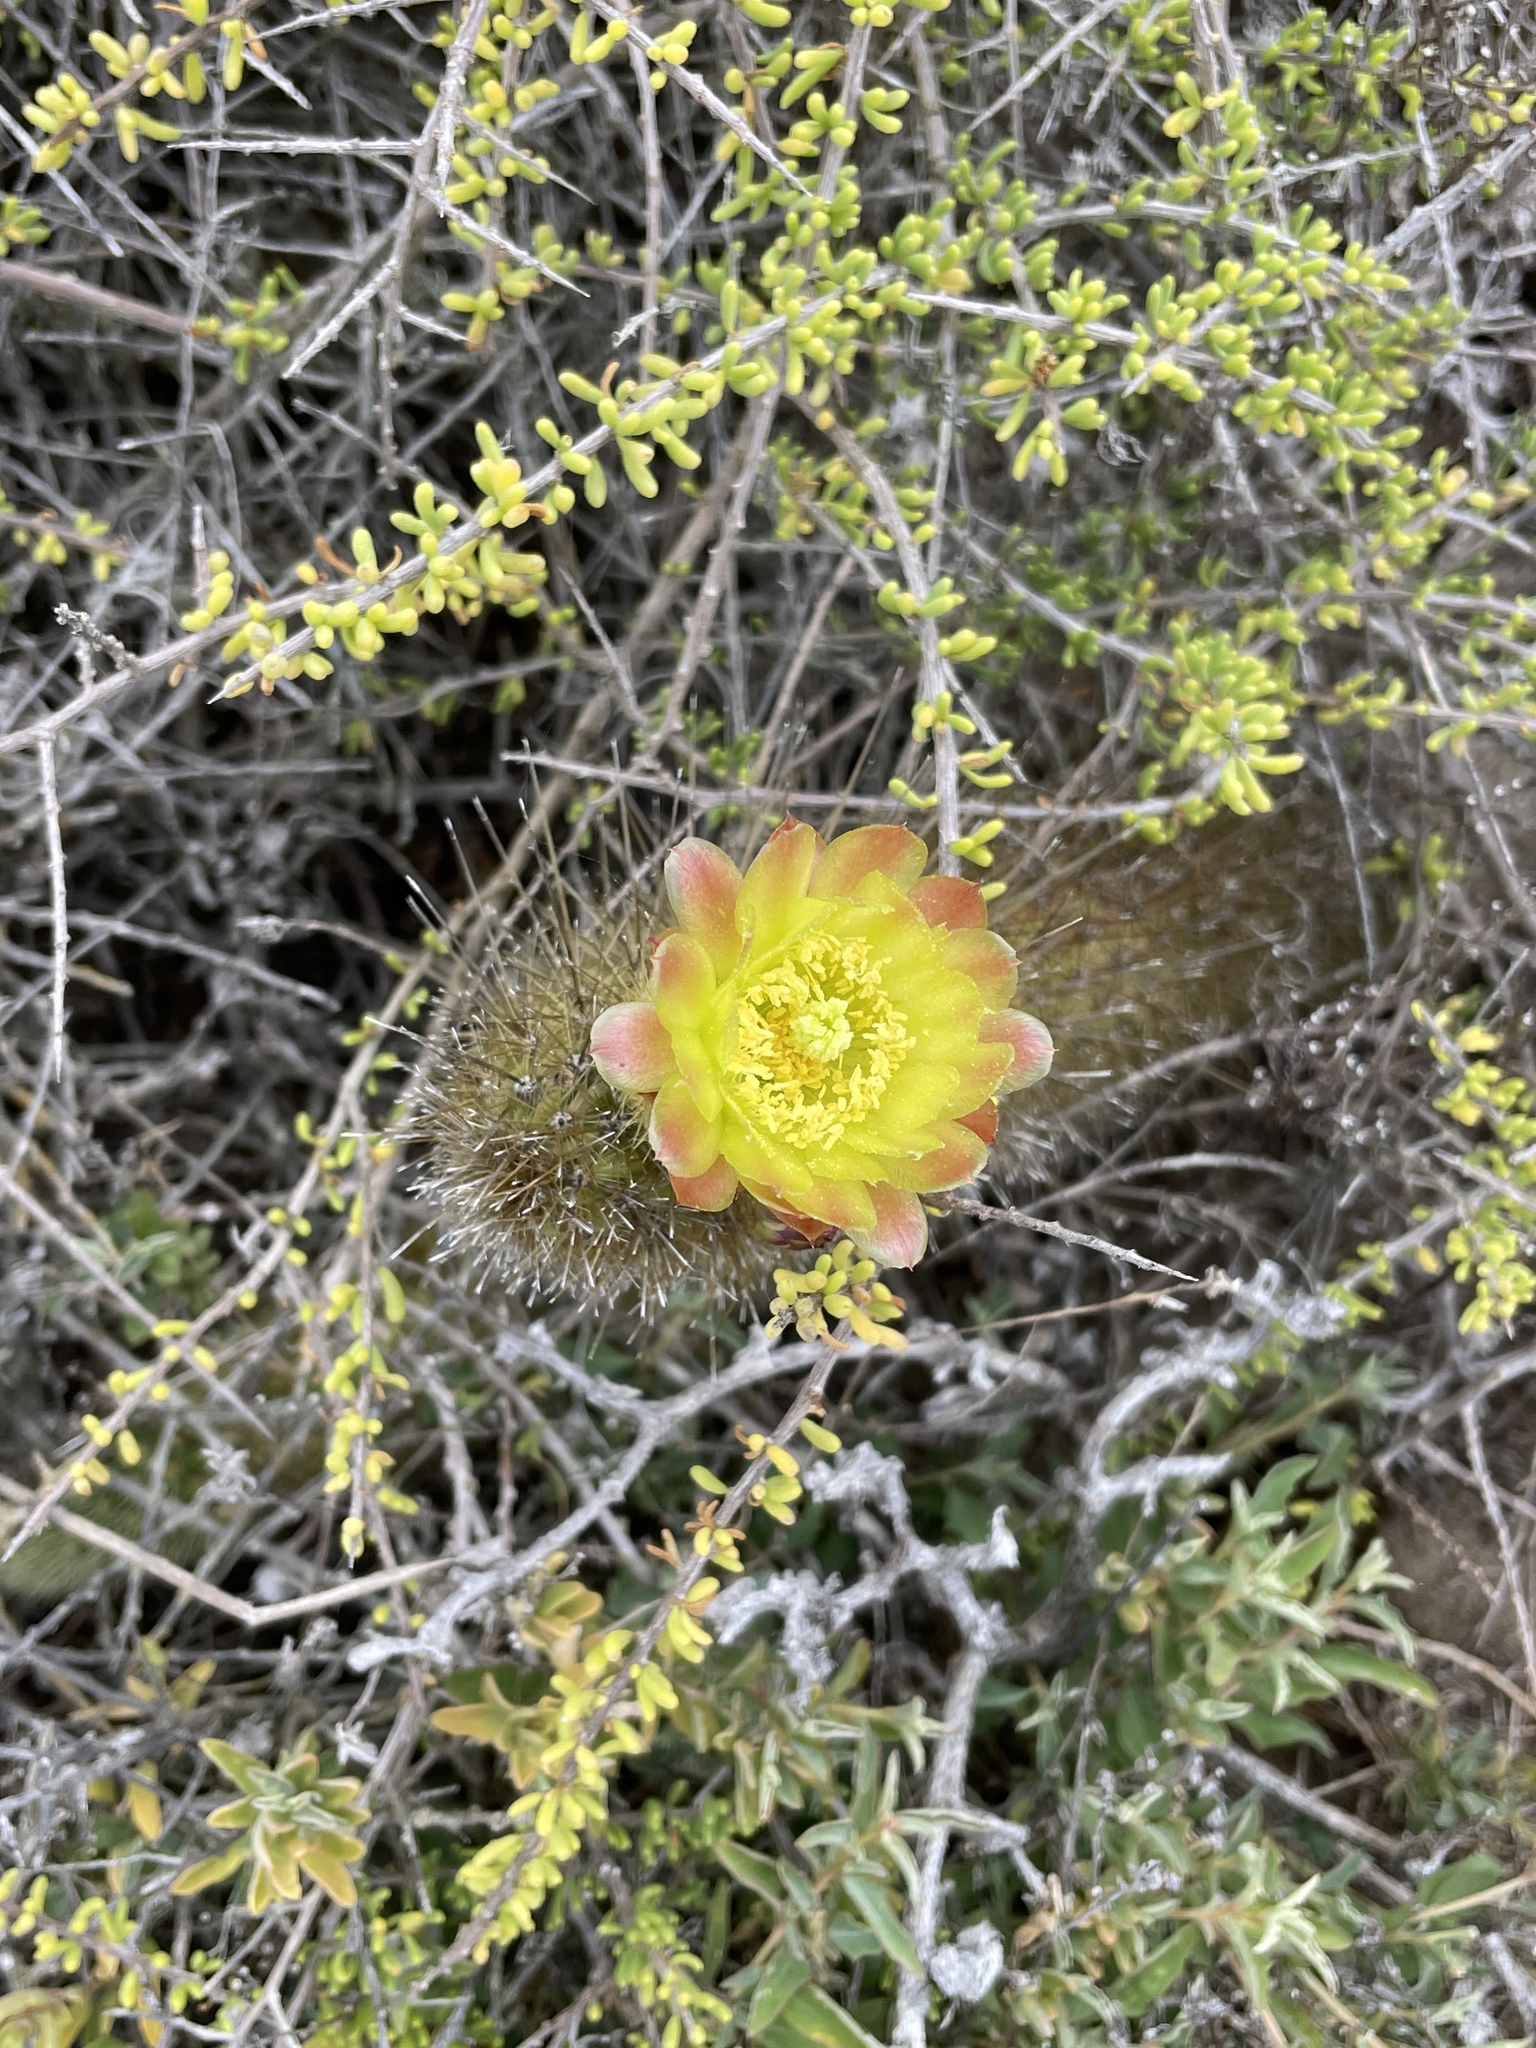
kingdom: Plantae
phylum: Tracheophyta
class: Magnoliopsida
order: Caryophyllales
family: Cactaceae
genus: Bergerocactus
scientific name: Bergerocactus emoryi
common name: Golden snakecactus
